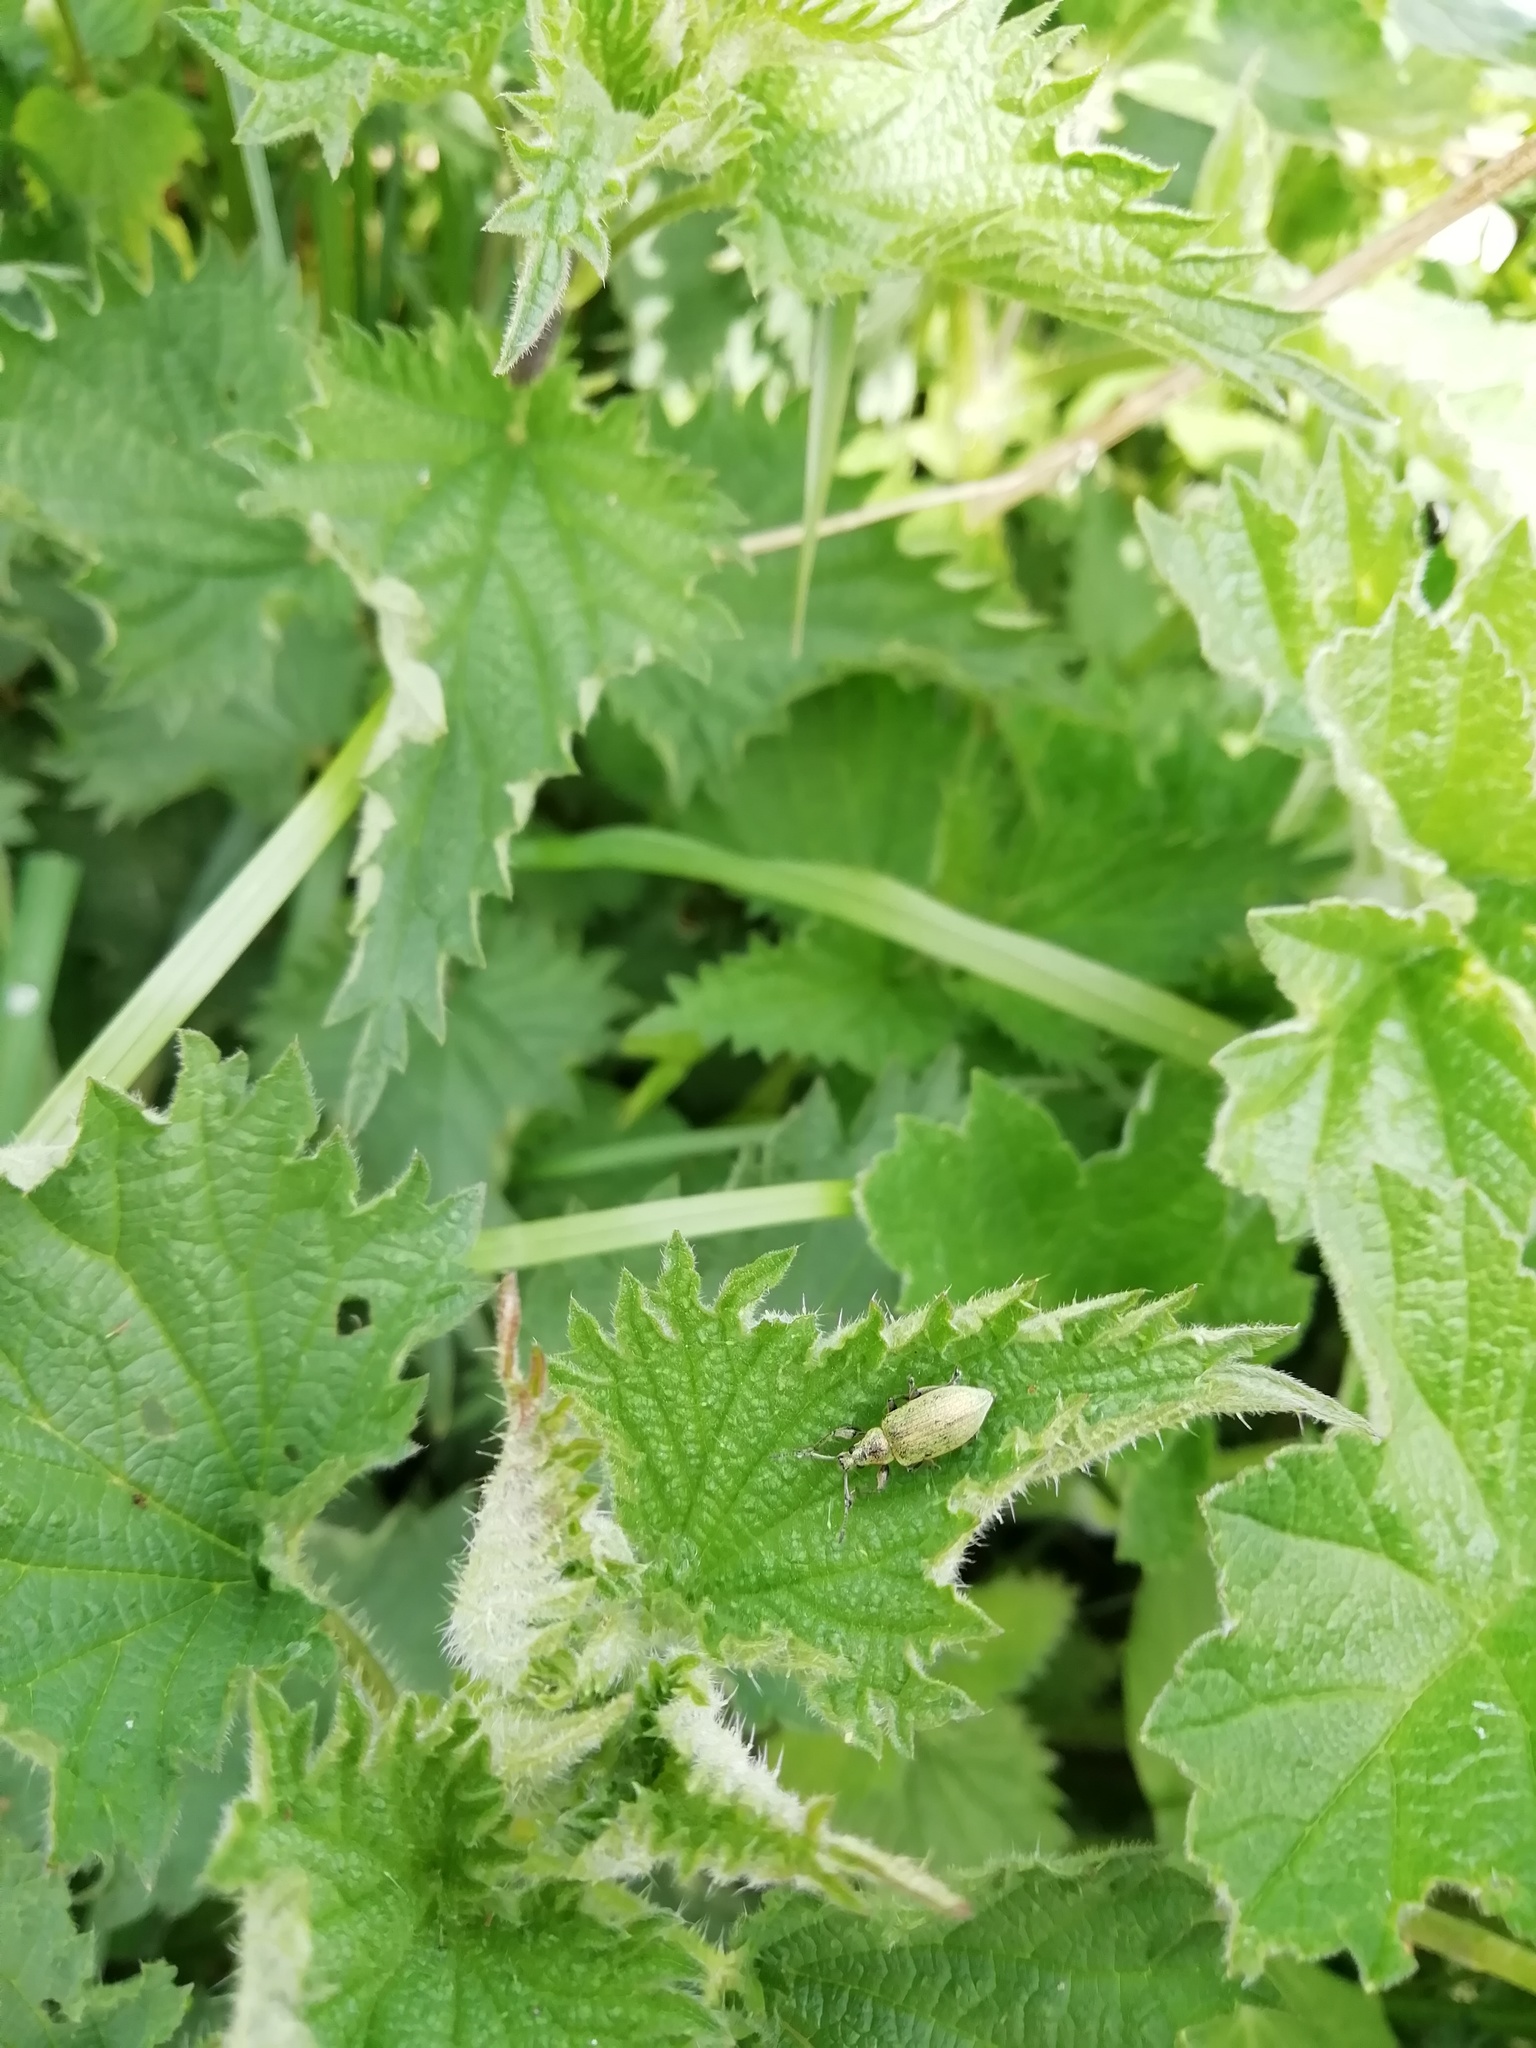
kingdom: Animalia
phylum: Arthropoda
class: Insecta
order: Coleoptera
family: Curculionidae
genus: Phyllobius
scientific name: Phyllobius pomaceus
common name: Green nettle weevil
